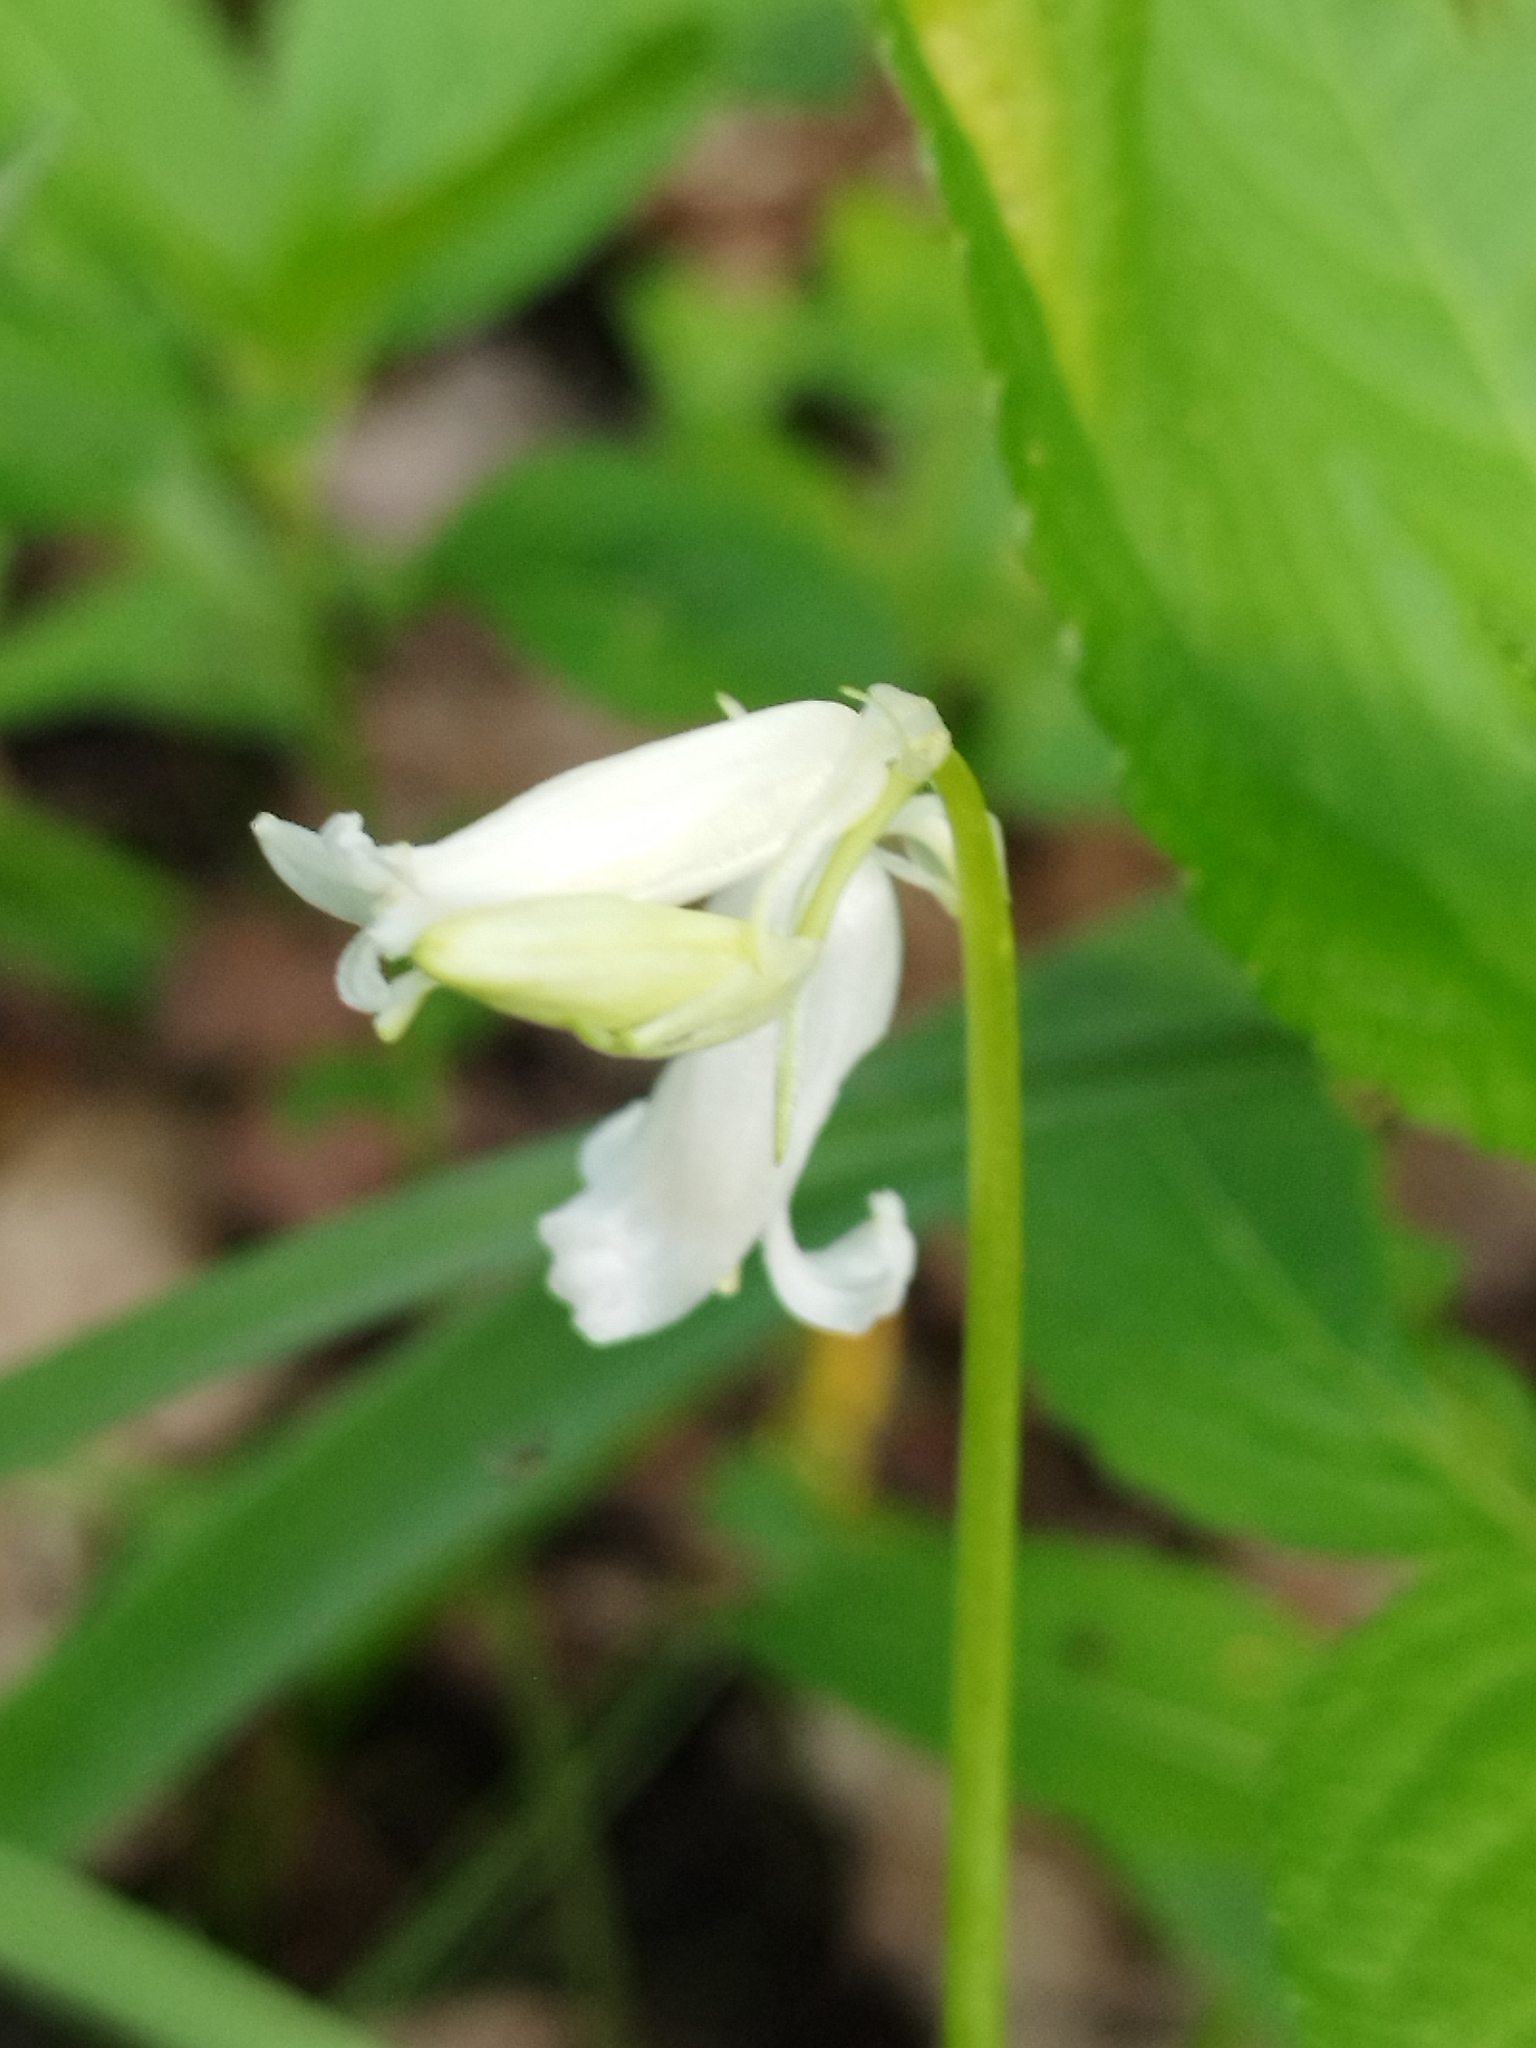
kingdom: Plantae
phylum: Tracheophyta
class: Liliopsida
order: Asparagales
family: Asparagaceae
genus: Hyacinthoides
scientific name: Hyacinthoides non-scripta
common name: Bluebell
